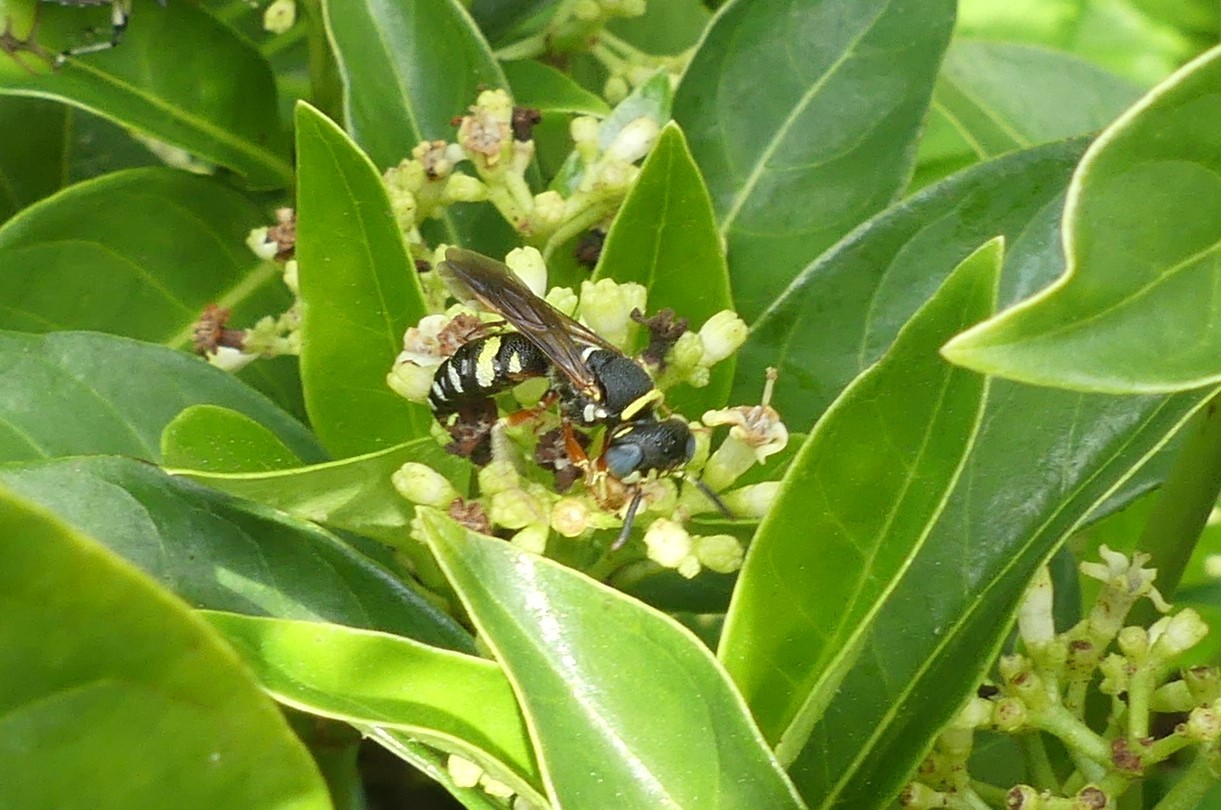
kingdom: Animalia
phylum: Arthropoda
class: Insecta
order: Hymenoptera
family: Crabronidae
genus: Philanthus
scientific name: Philanthus ventilabris
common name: Bee-killer wasp
